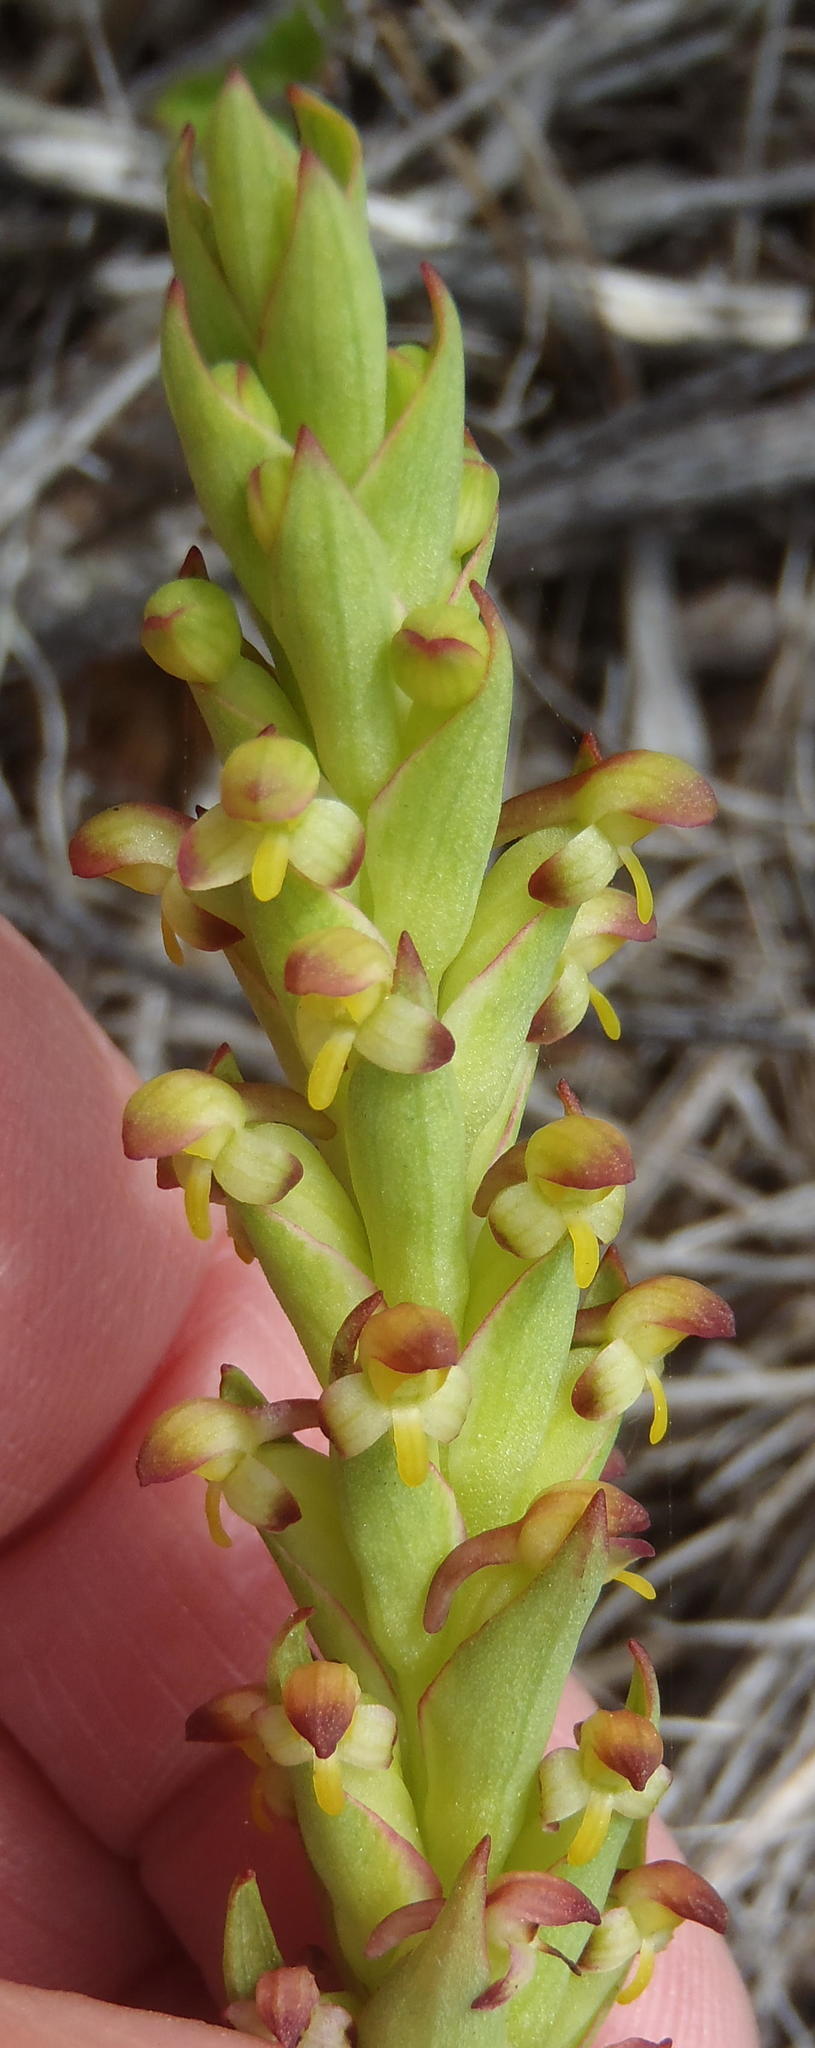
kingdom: Plantae
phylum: Tracheophyta
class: Liliopsida
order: Asparagales
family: Orchidaceae
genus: Disa
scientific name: Disa bracteata
